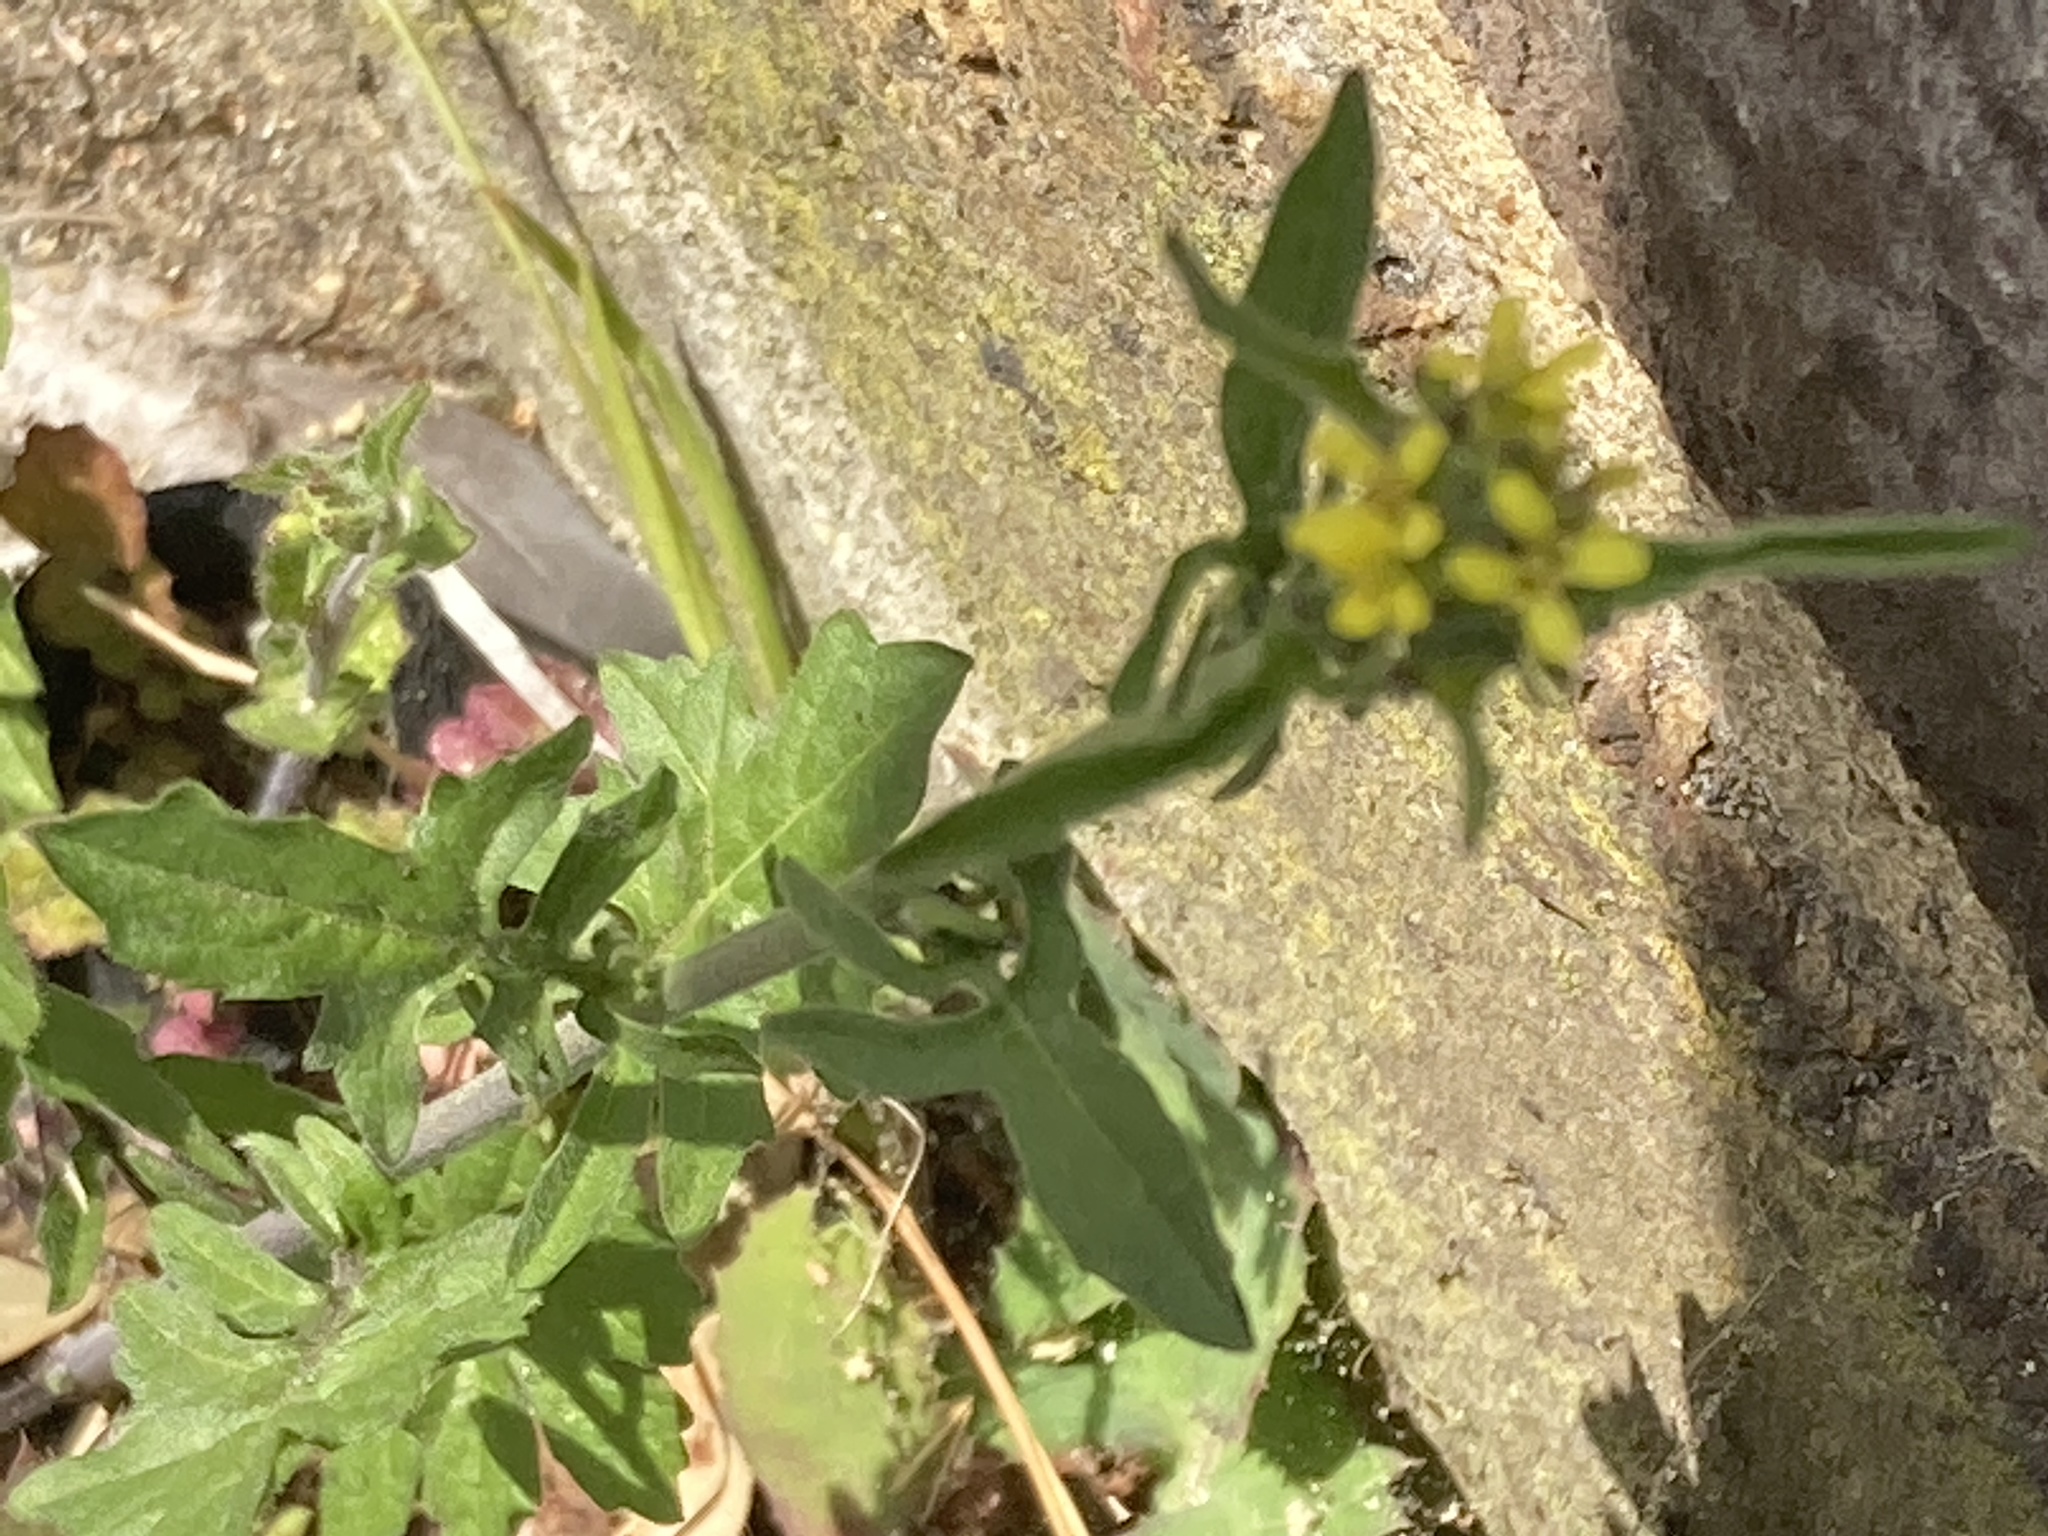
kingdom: Plantae
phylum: Tracheophyta
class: Magnoliopsida
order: Brassicales
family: Brassicaceae
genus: Sisymbrium
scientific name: Sisymbrium officinale
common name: Hedge mustard
